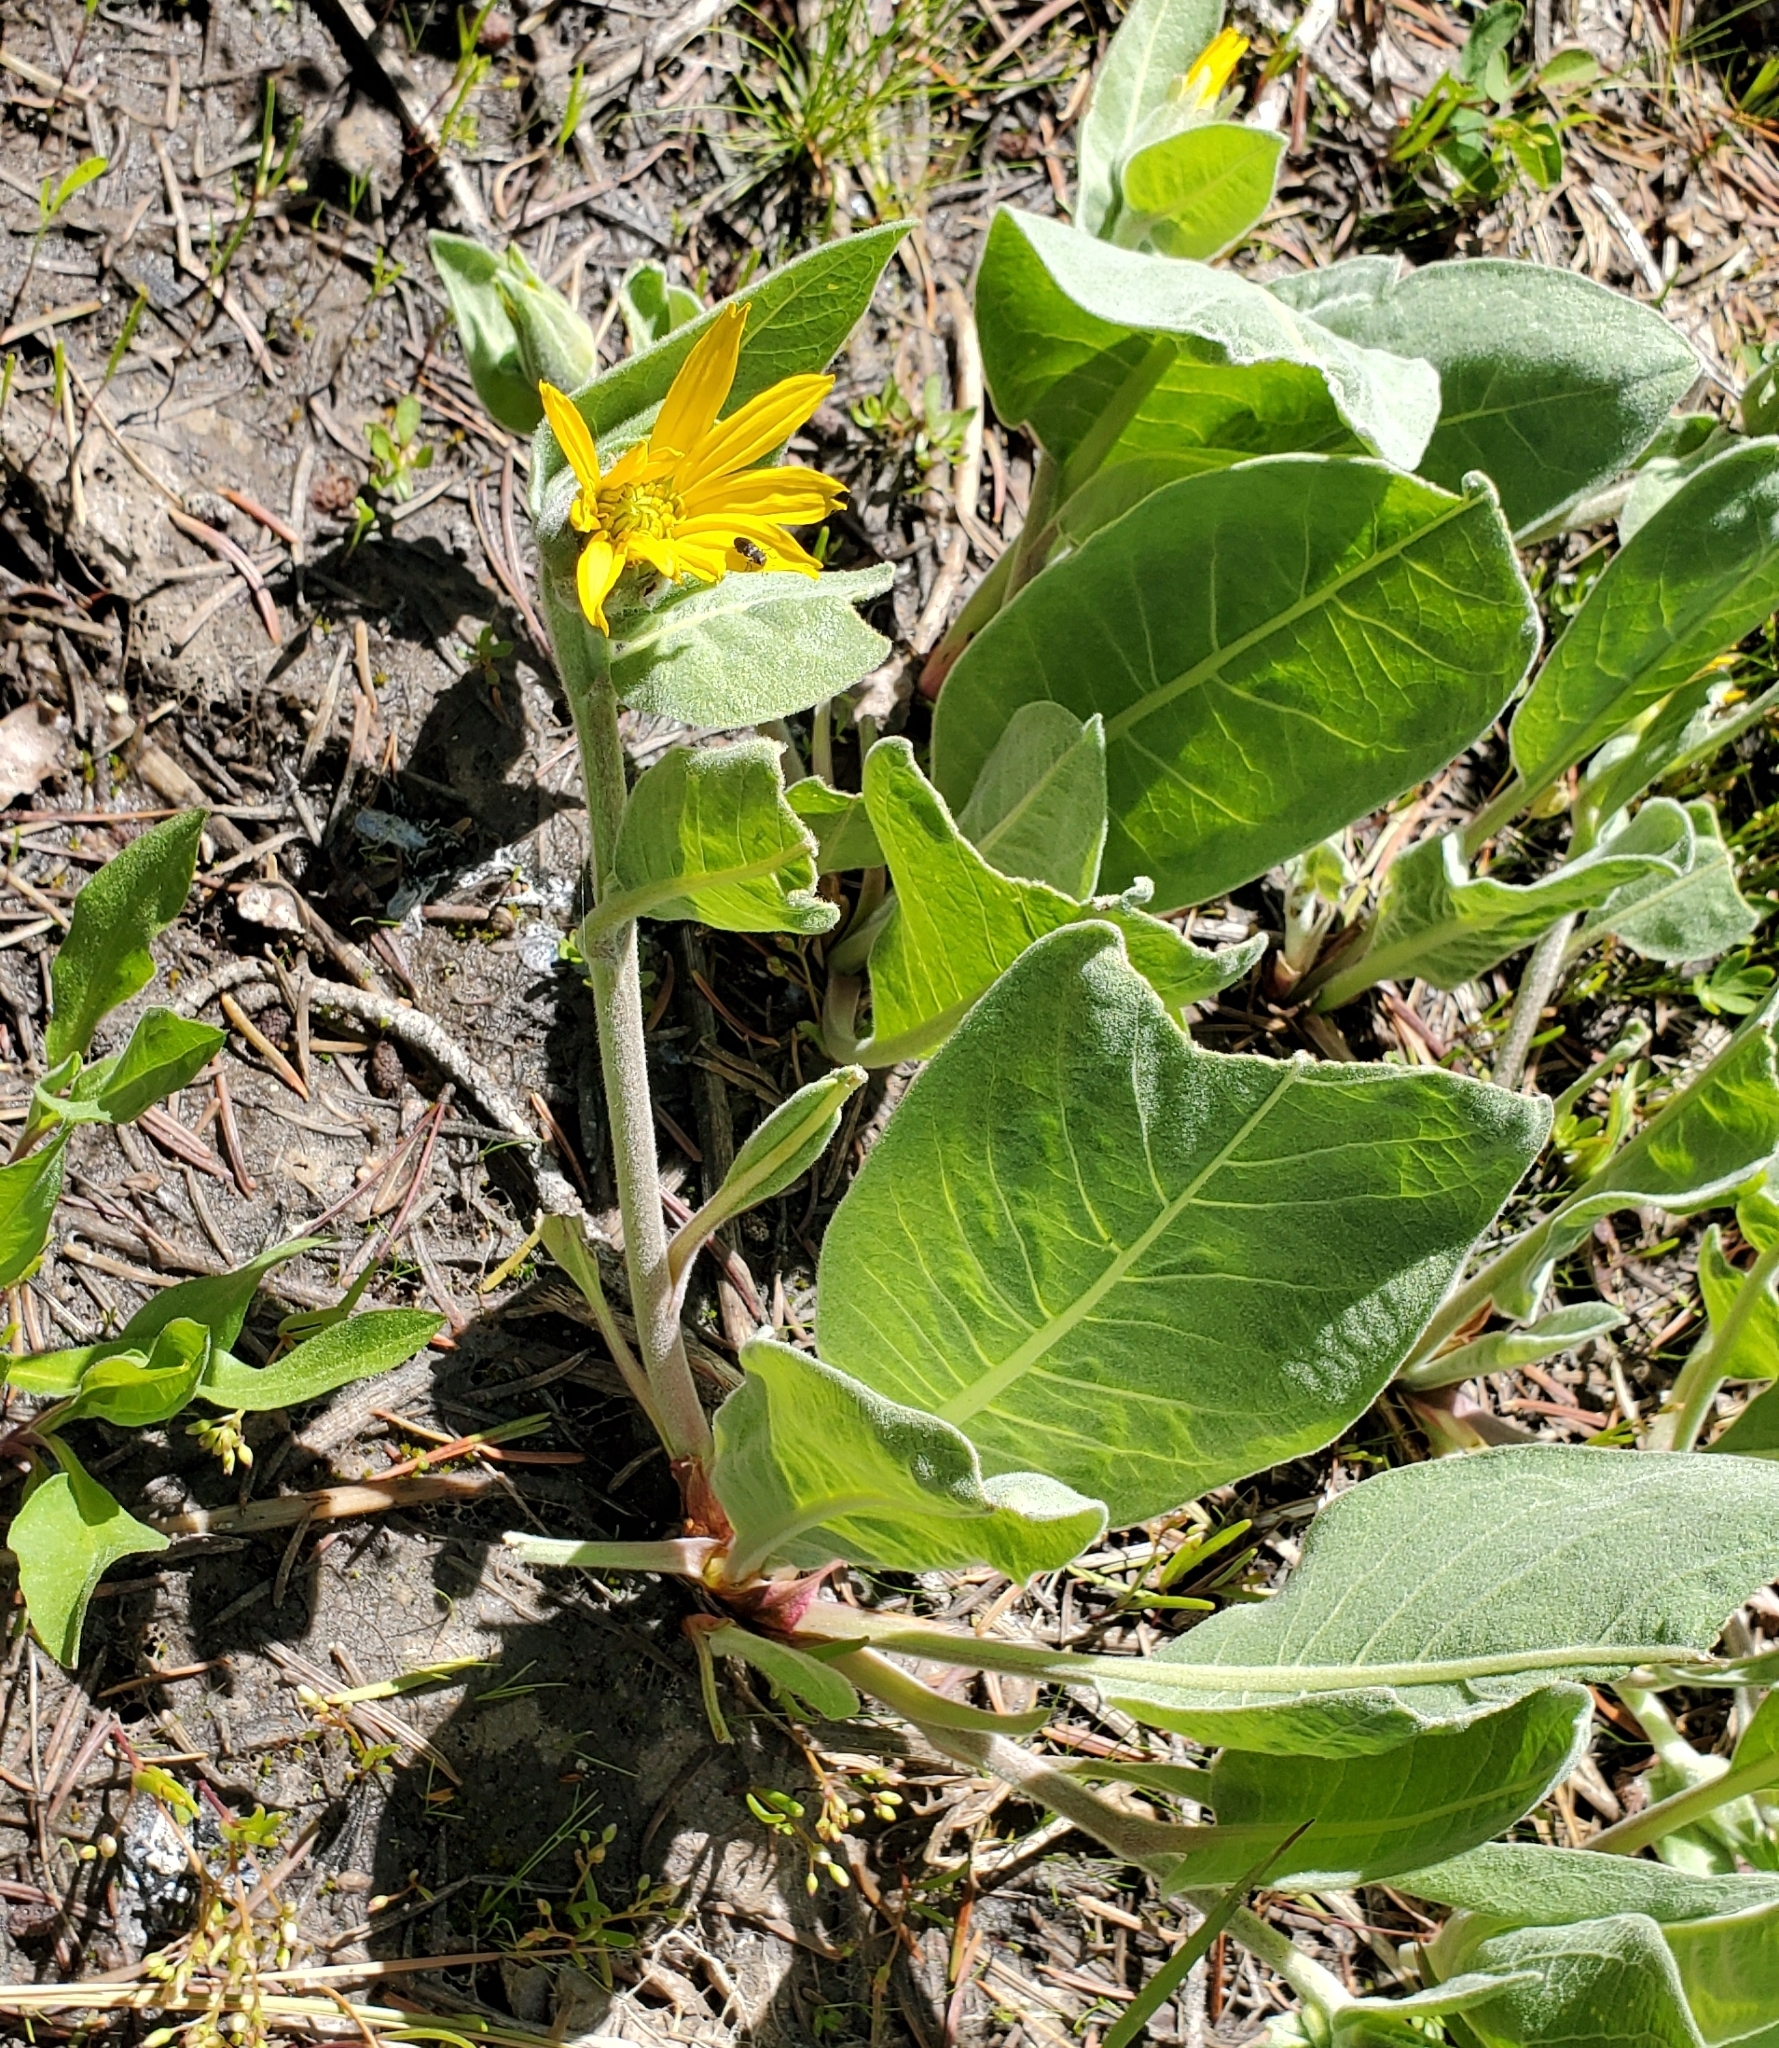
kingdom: Plantae
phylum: Tracheophyta
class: Magnoliopsida
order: Asterales
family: Asteraceae
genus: Wyethia
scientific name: Wyethia mollis
